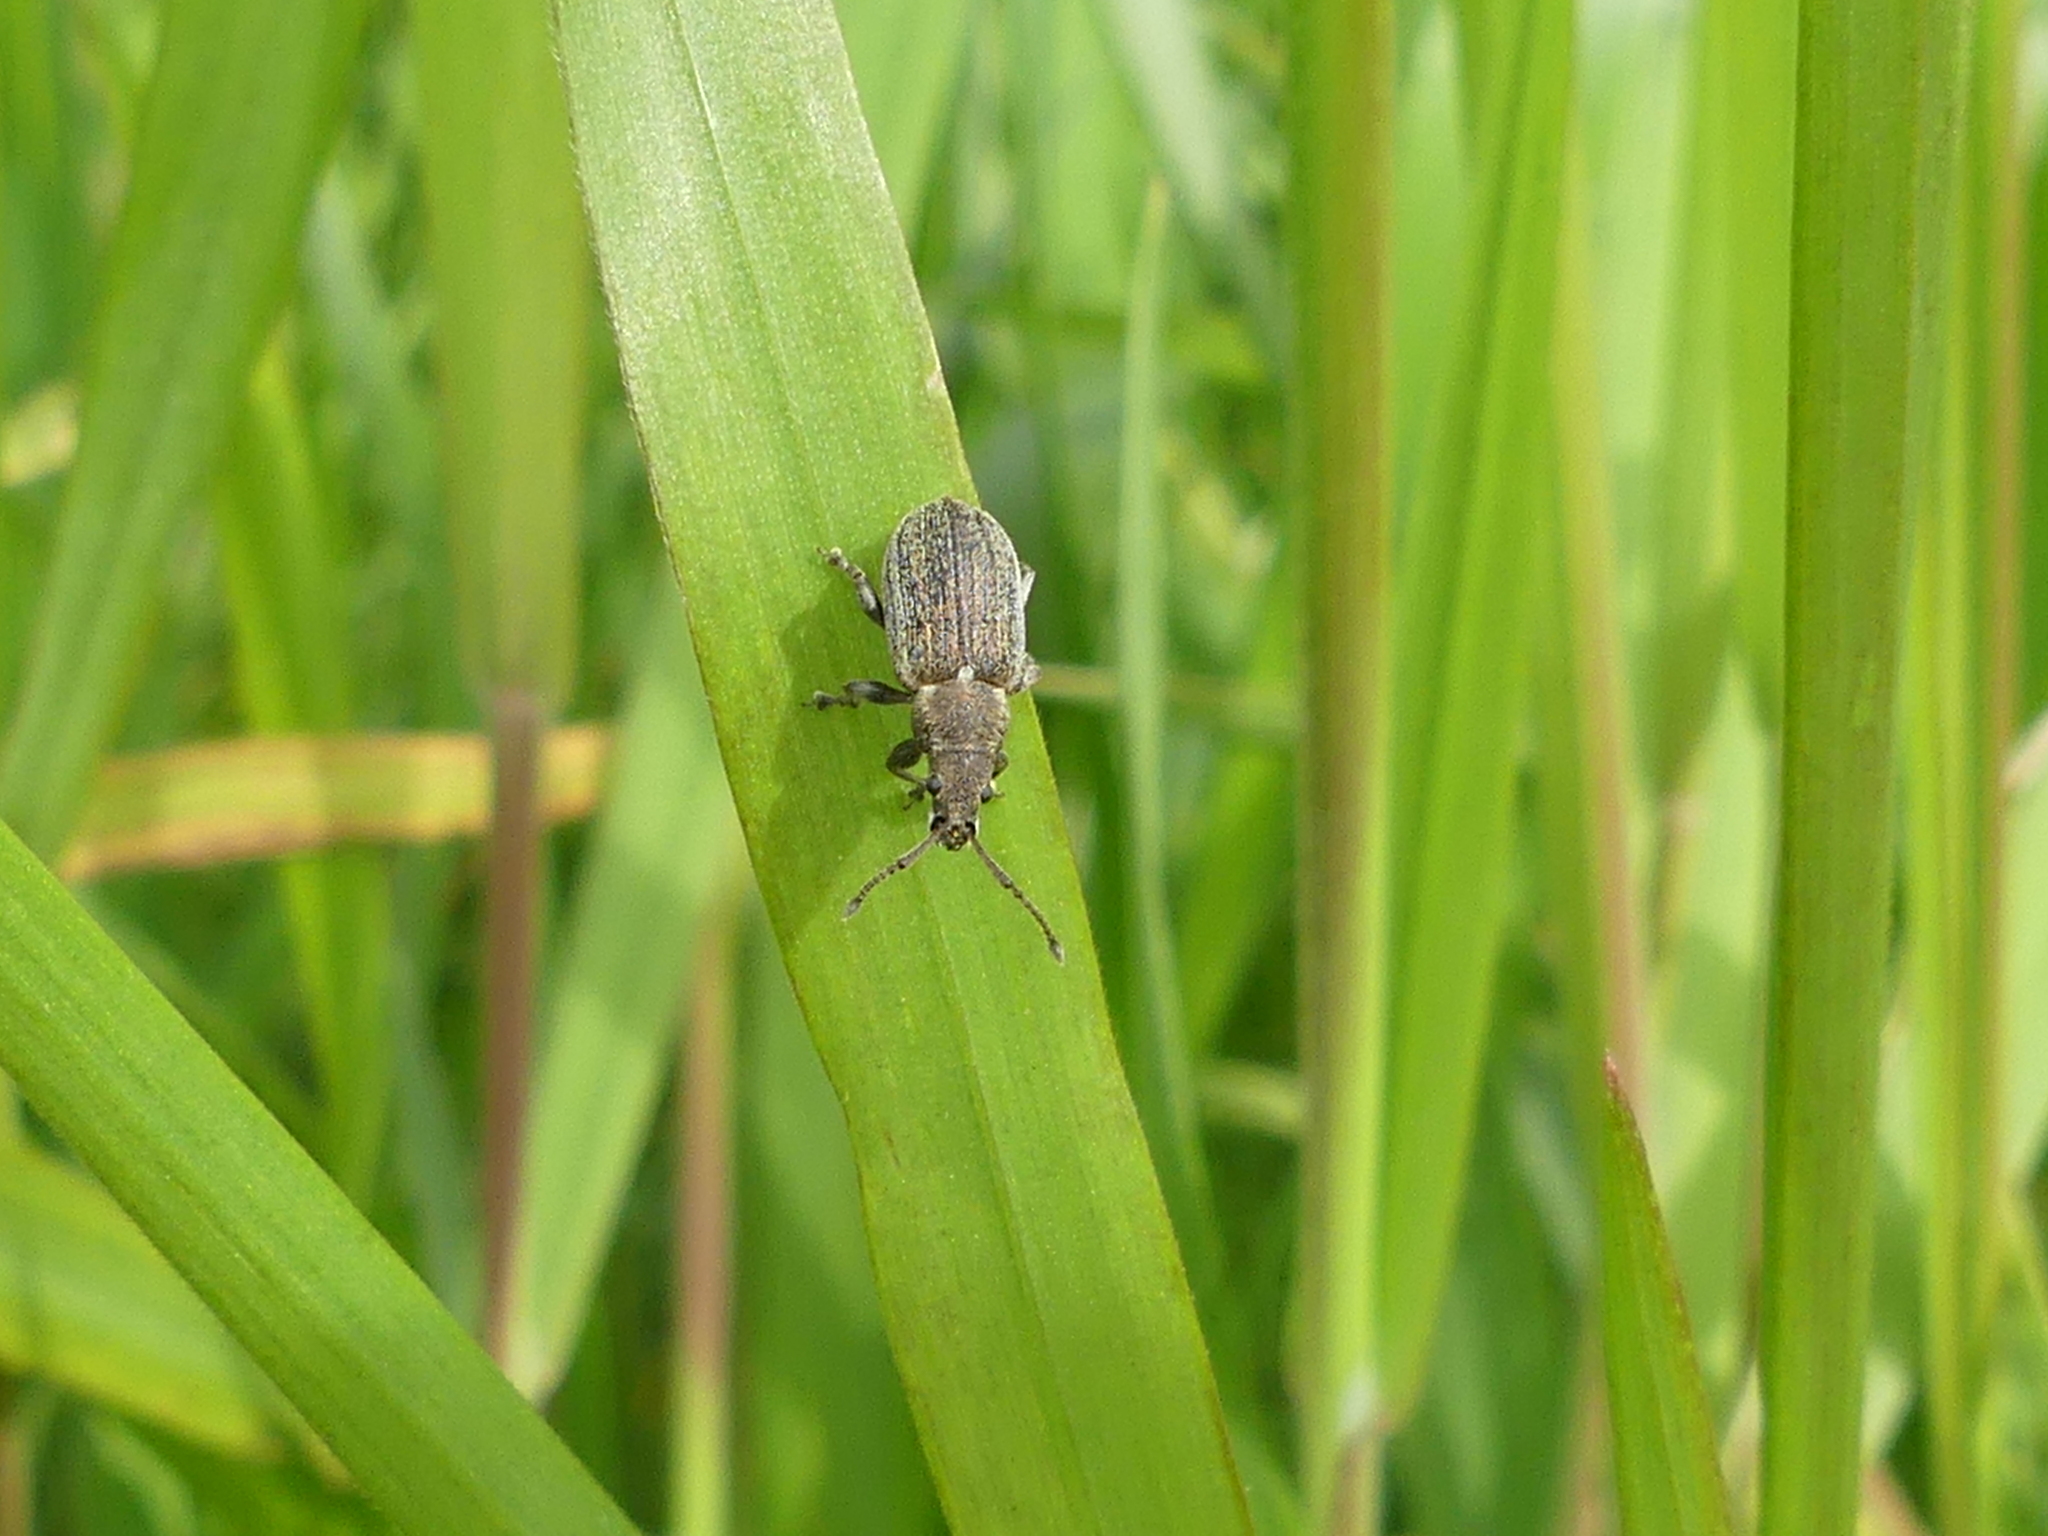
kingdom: Animalia
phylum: Arthropoda
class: Insecta
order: Coleoptera
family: Curculionidae
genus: Phyllobius
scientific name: Phyllobius pyri
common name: Common leaf weevil
